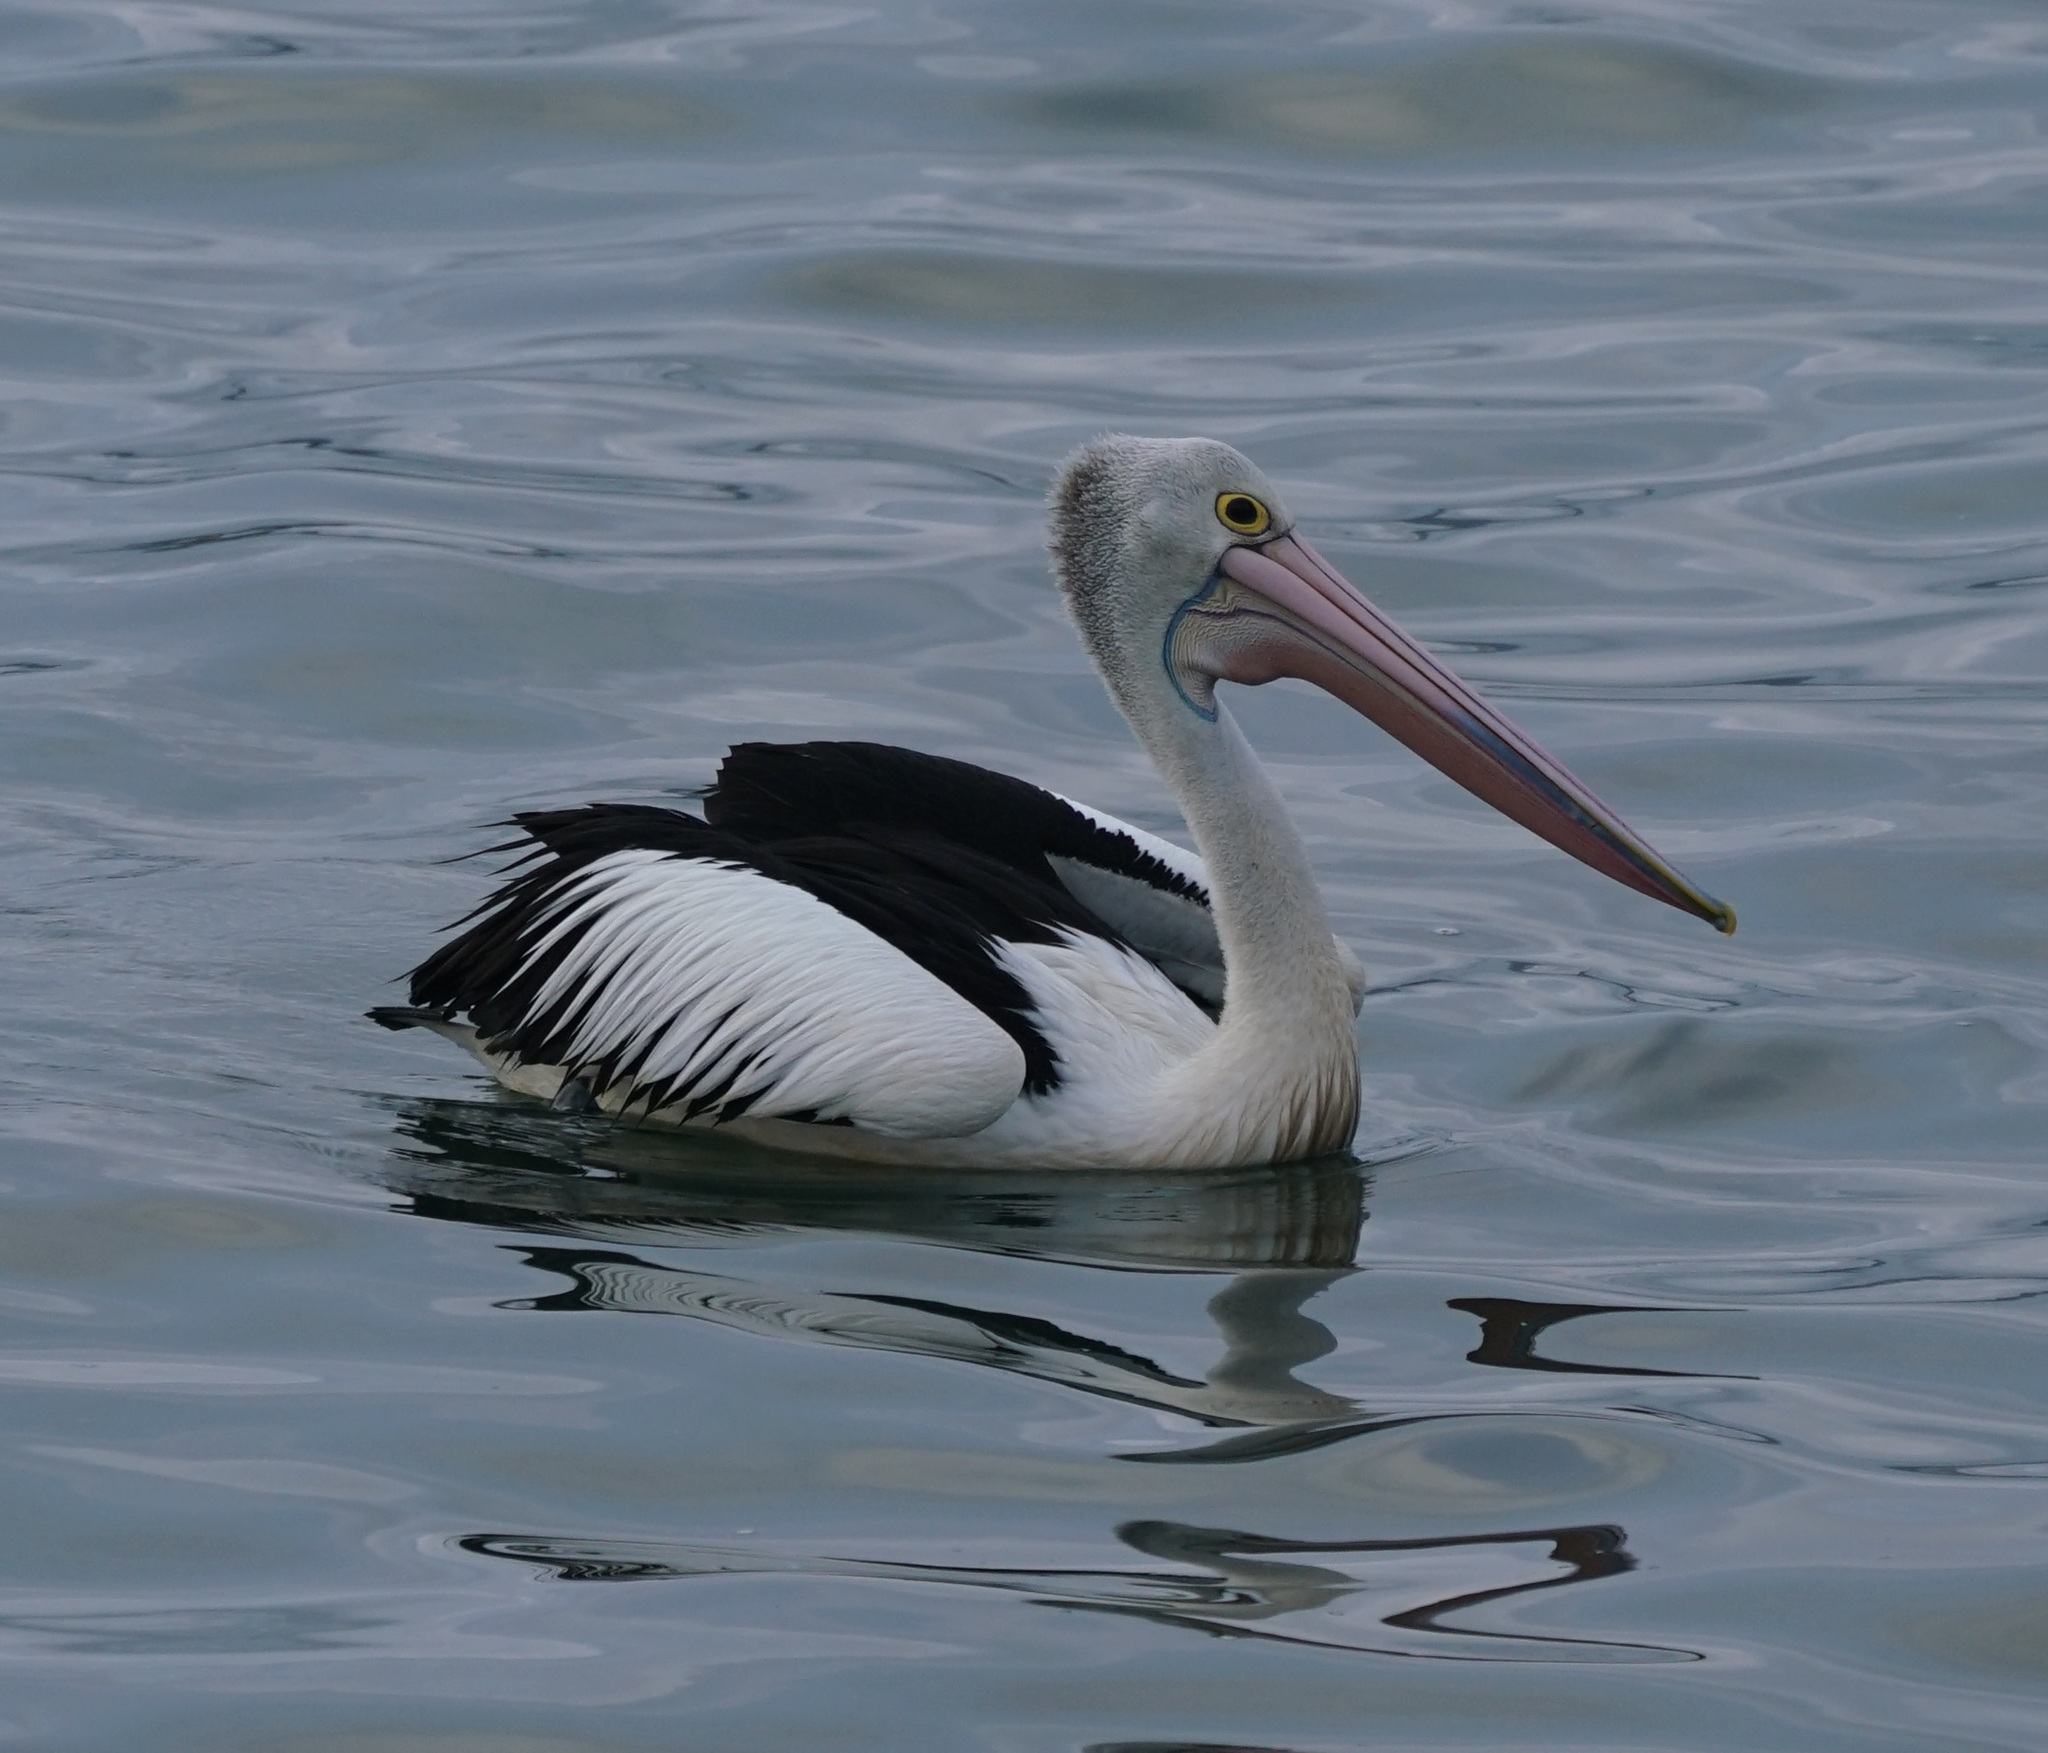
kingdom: Animalia
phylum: Chordata
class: Aves
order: Pelecaniformes
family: Pelecanidae
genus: Pelecanus
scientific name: Pelecanus conspicillatus
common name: Australian pelican
